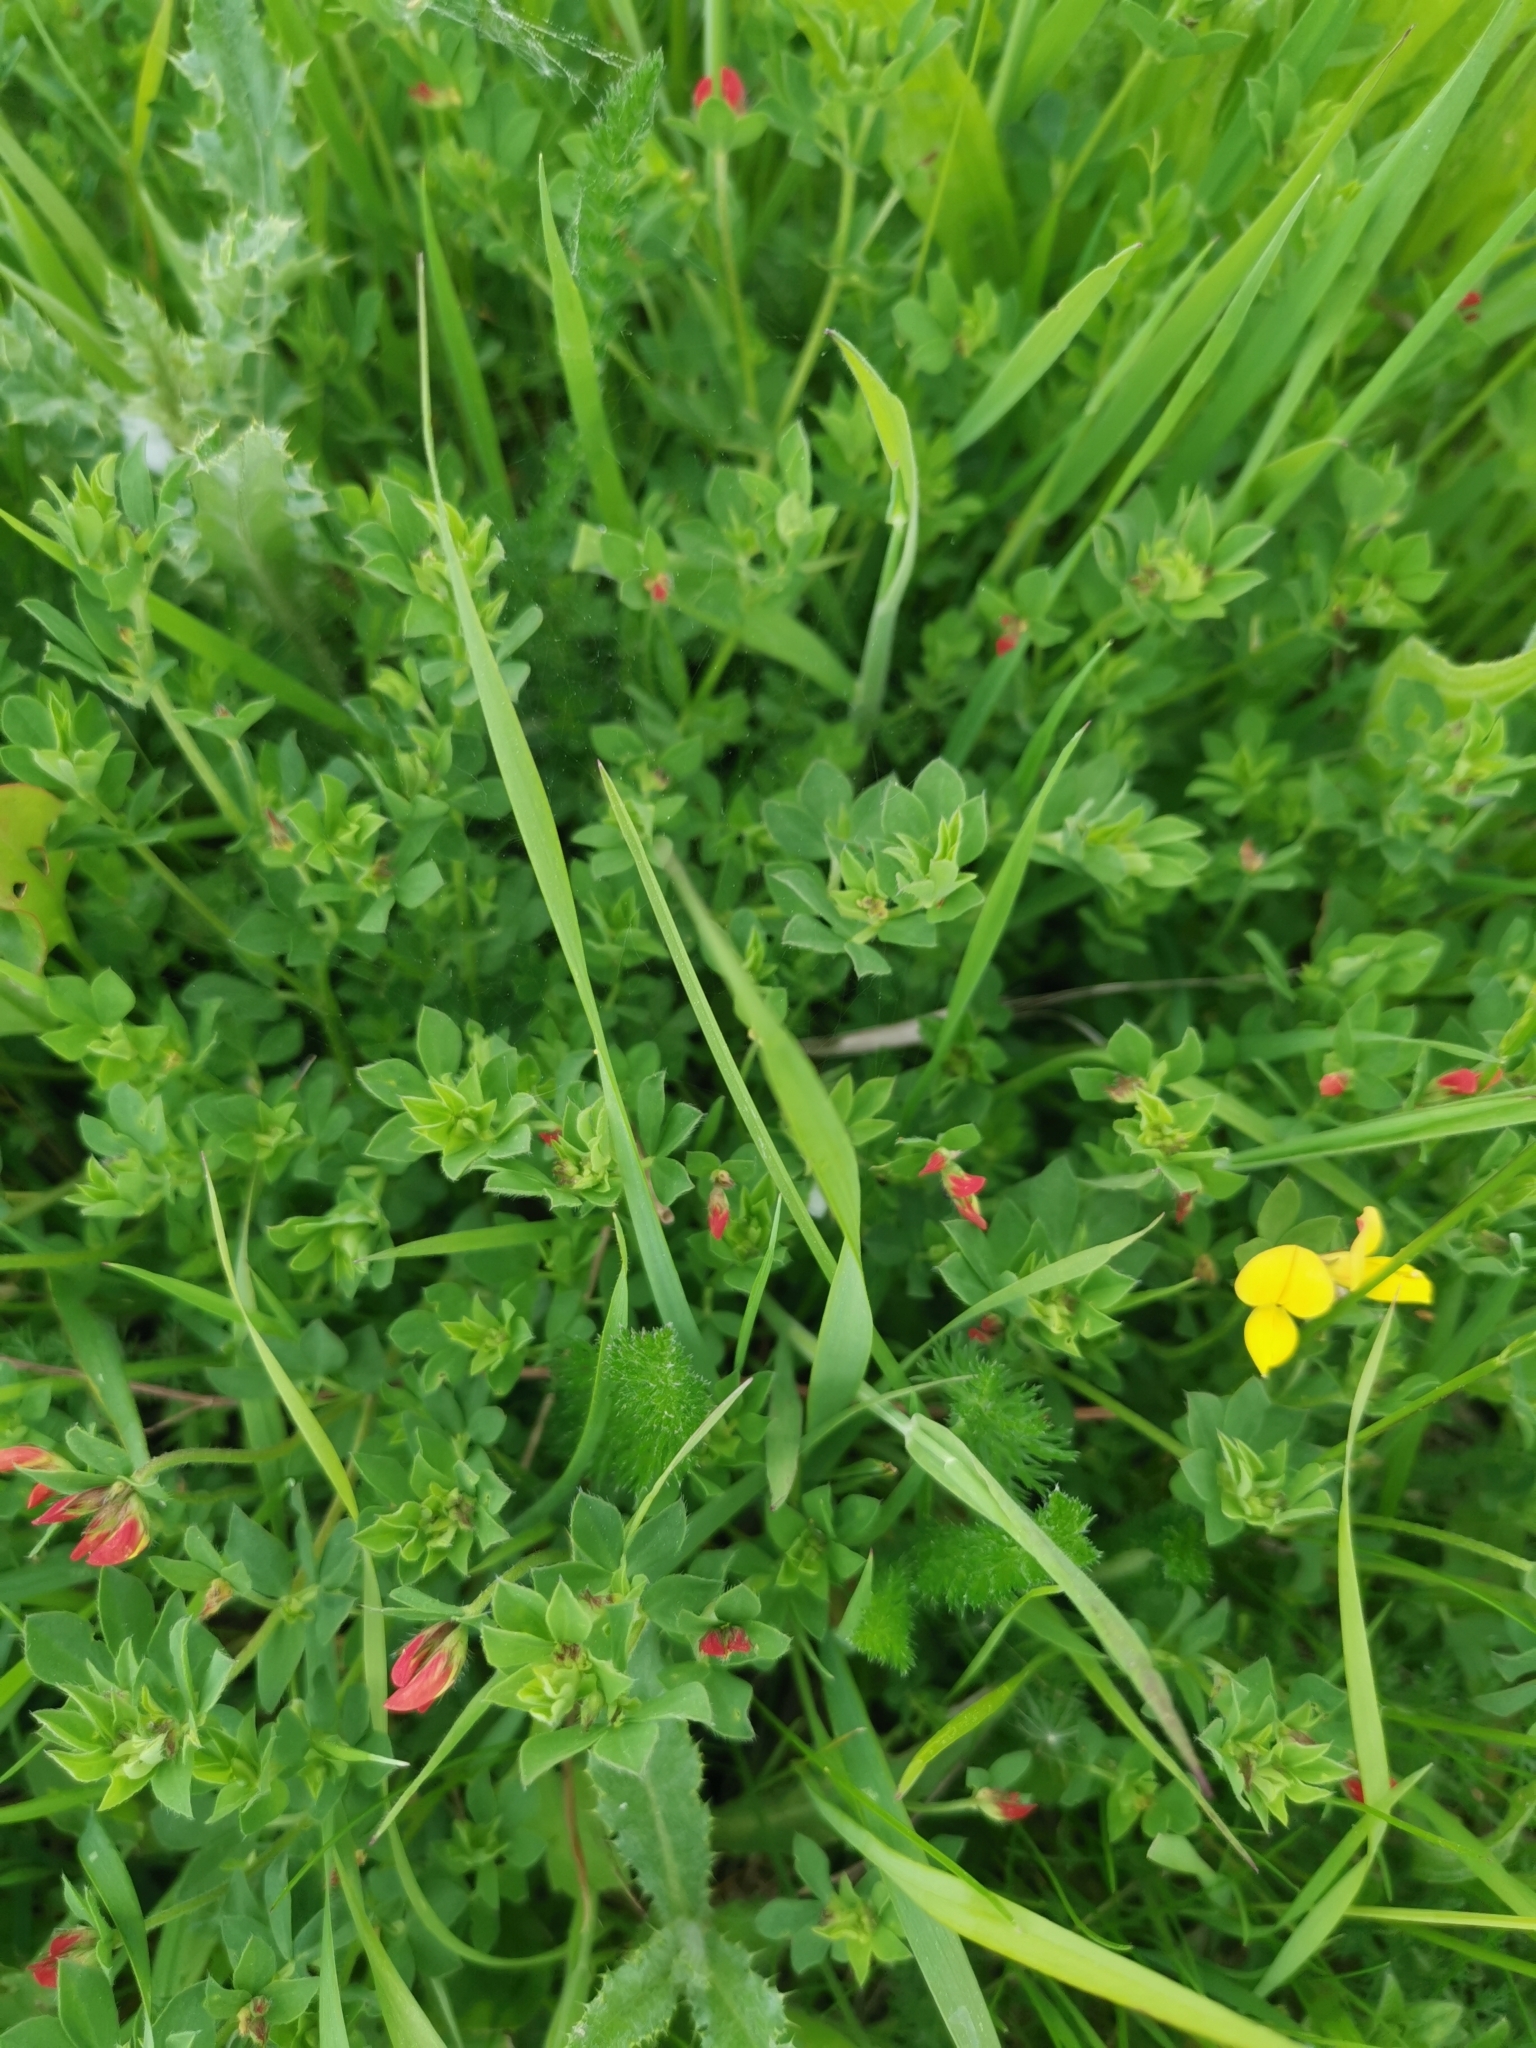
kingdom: Plantae
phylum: Tracheophyta
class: Magnoliopsida
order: Fabales
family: Fabaceae
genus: Lotus
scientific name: Lotus corniculatus
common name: Common bird's-foot-trefoil
